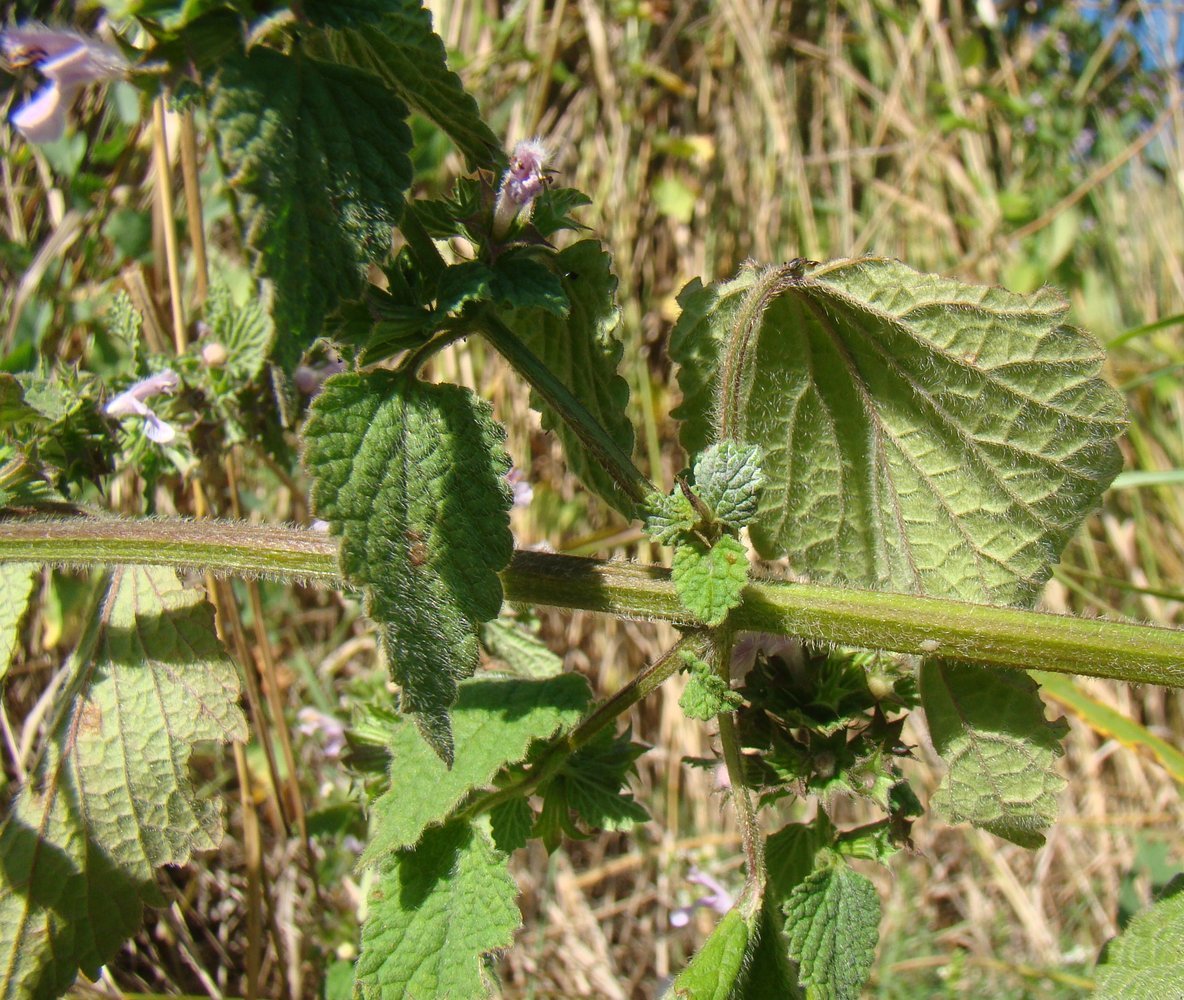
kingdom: Plantae
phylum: Tracheophyta
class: Magnoliopsida
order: Lamiales
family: Lamiaceae
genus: Ballota
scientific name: Ballota nigra
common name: Black horehound
